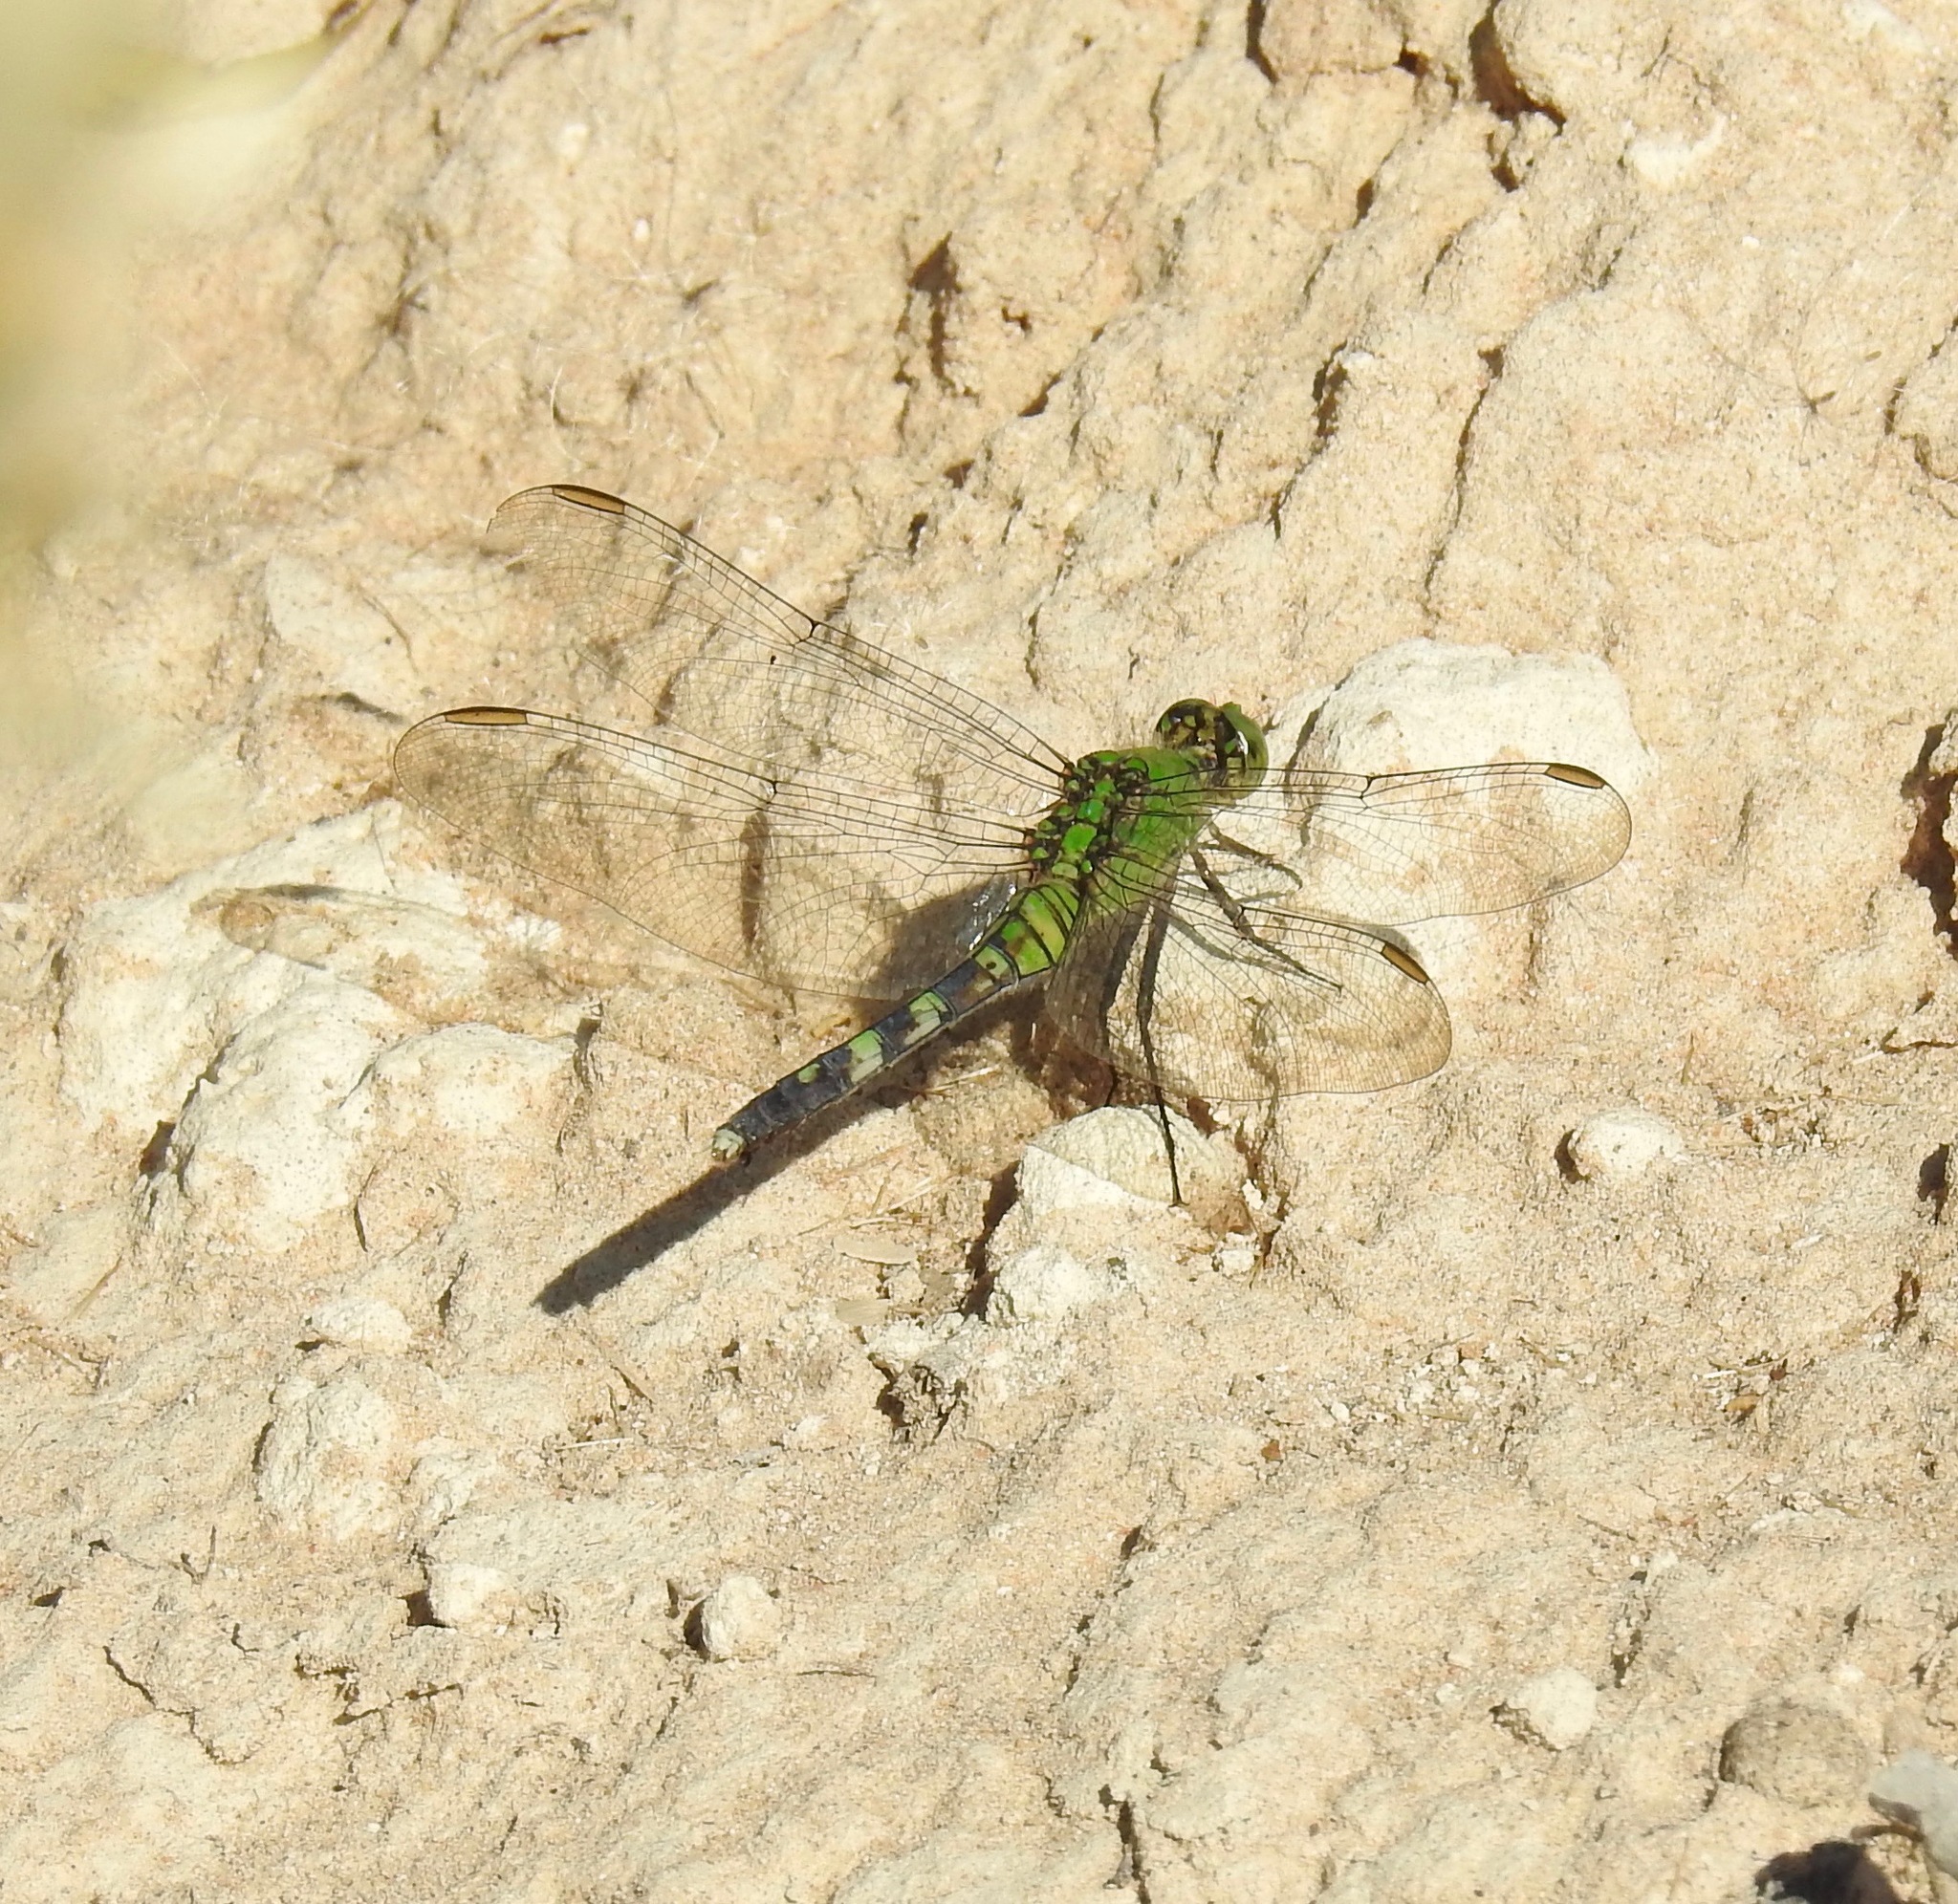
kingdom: Animalia
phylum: Arthropoda
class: Insecta
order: Odonata
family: Libellulidae
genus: Erythemis
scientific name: Erythemis simplicicollis
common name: Eastern pondhawk
